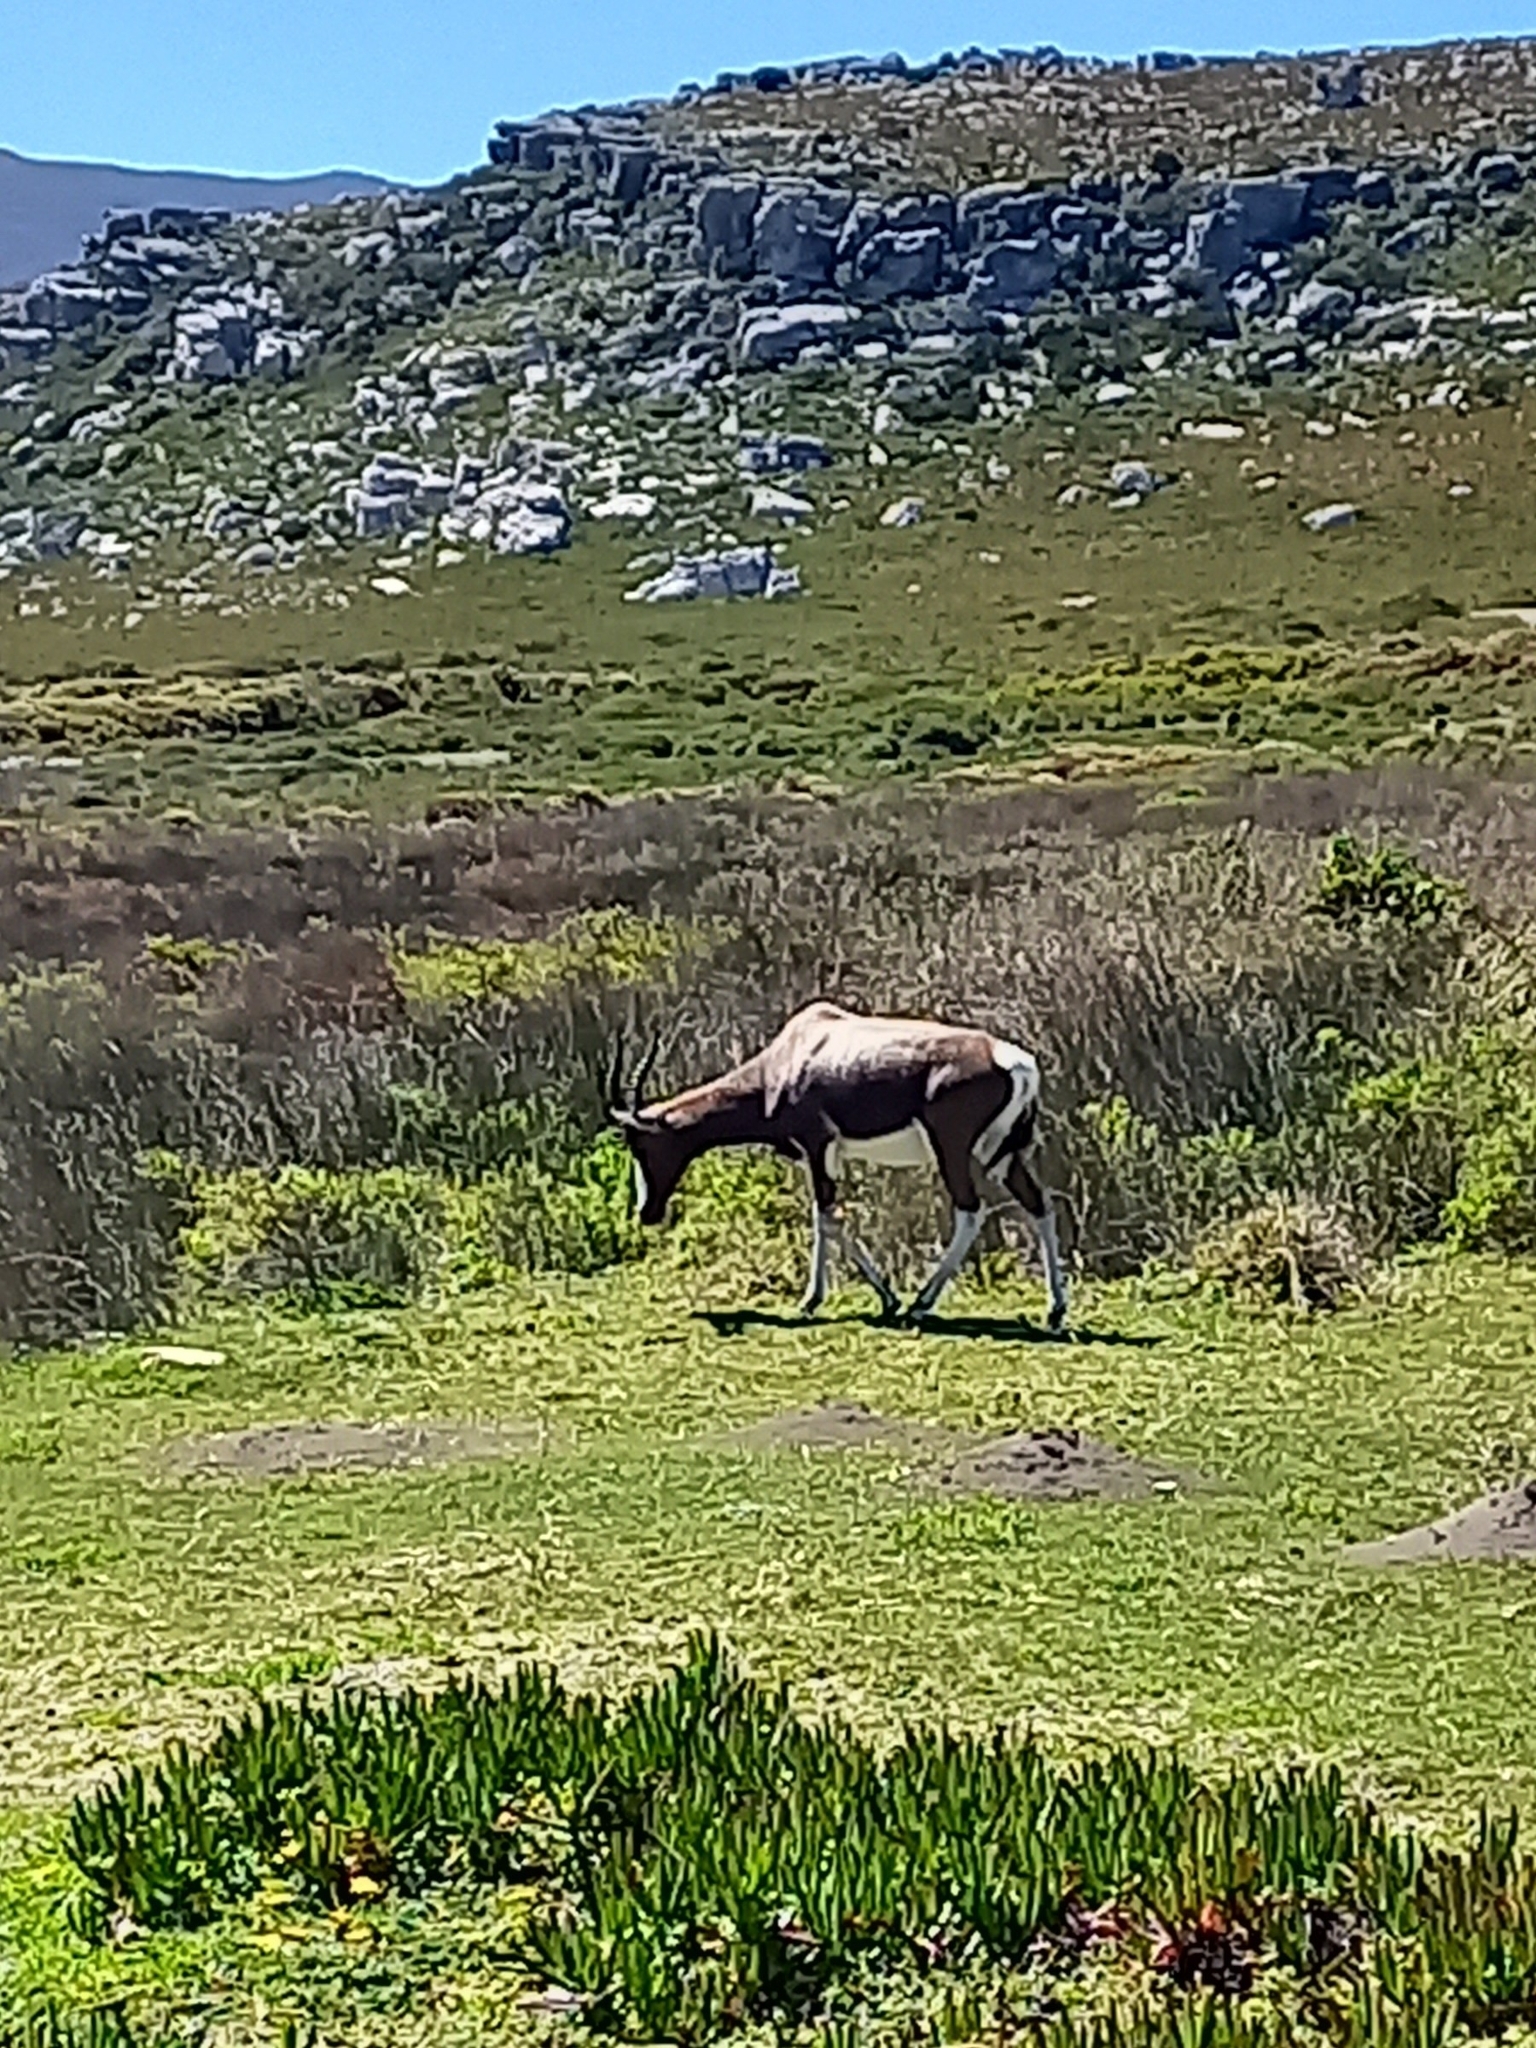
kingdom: Animalia
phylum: Chordata
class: Mammalia
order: Artiodactyla
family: Bovidae
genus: Damaliscus
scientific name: Damaliscus pygargus
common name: Bontebok
